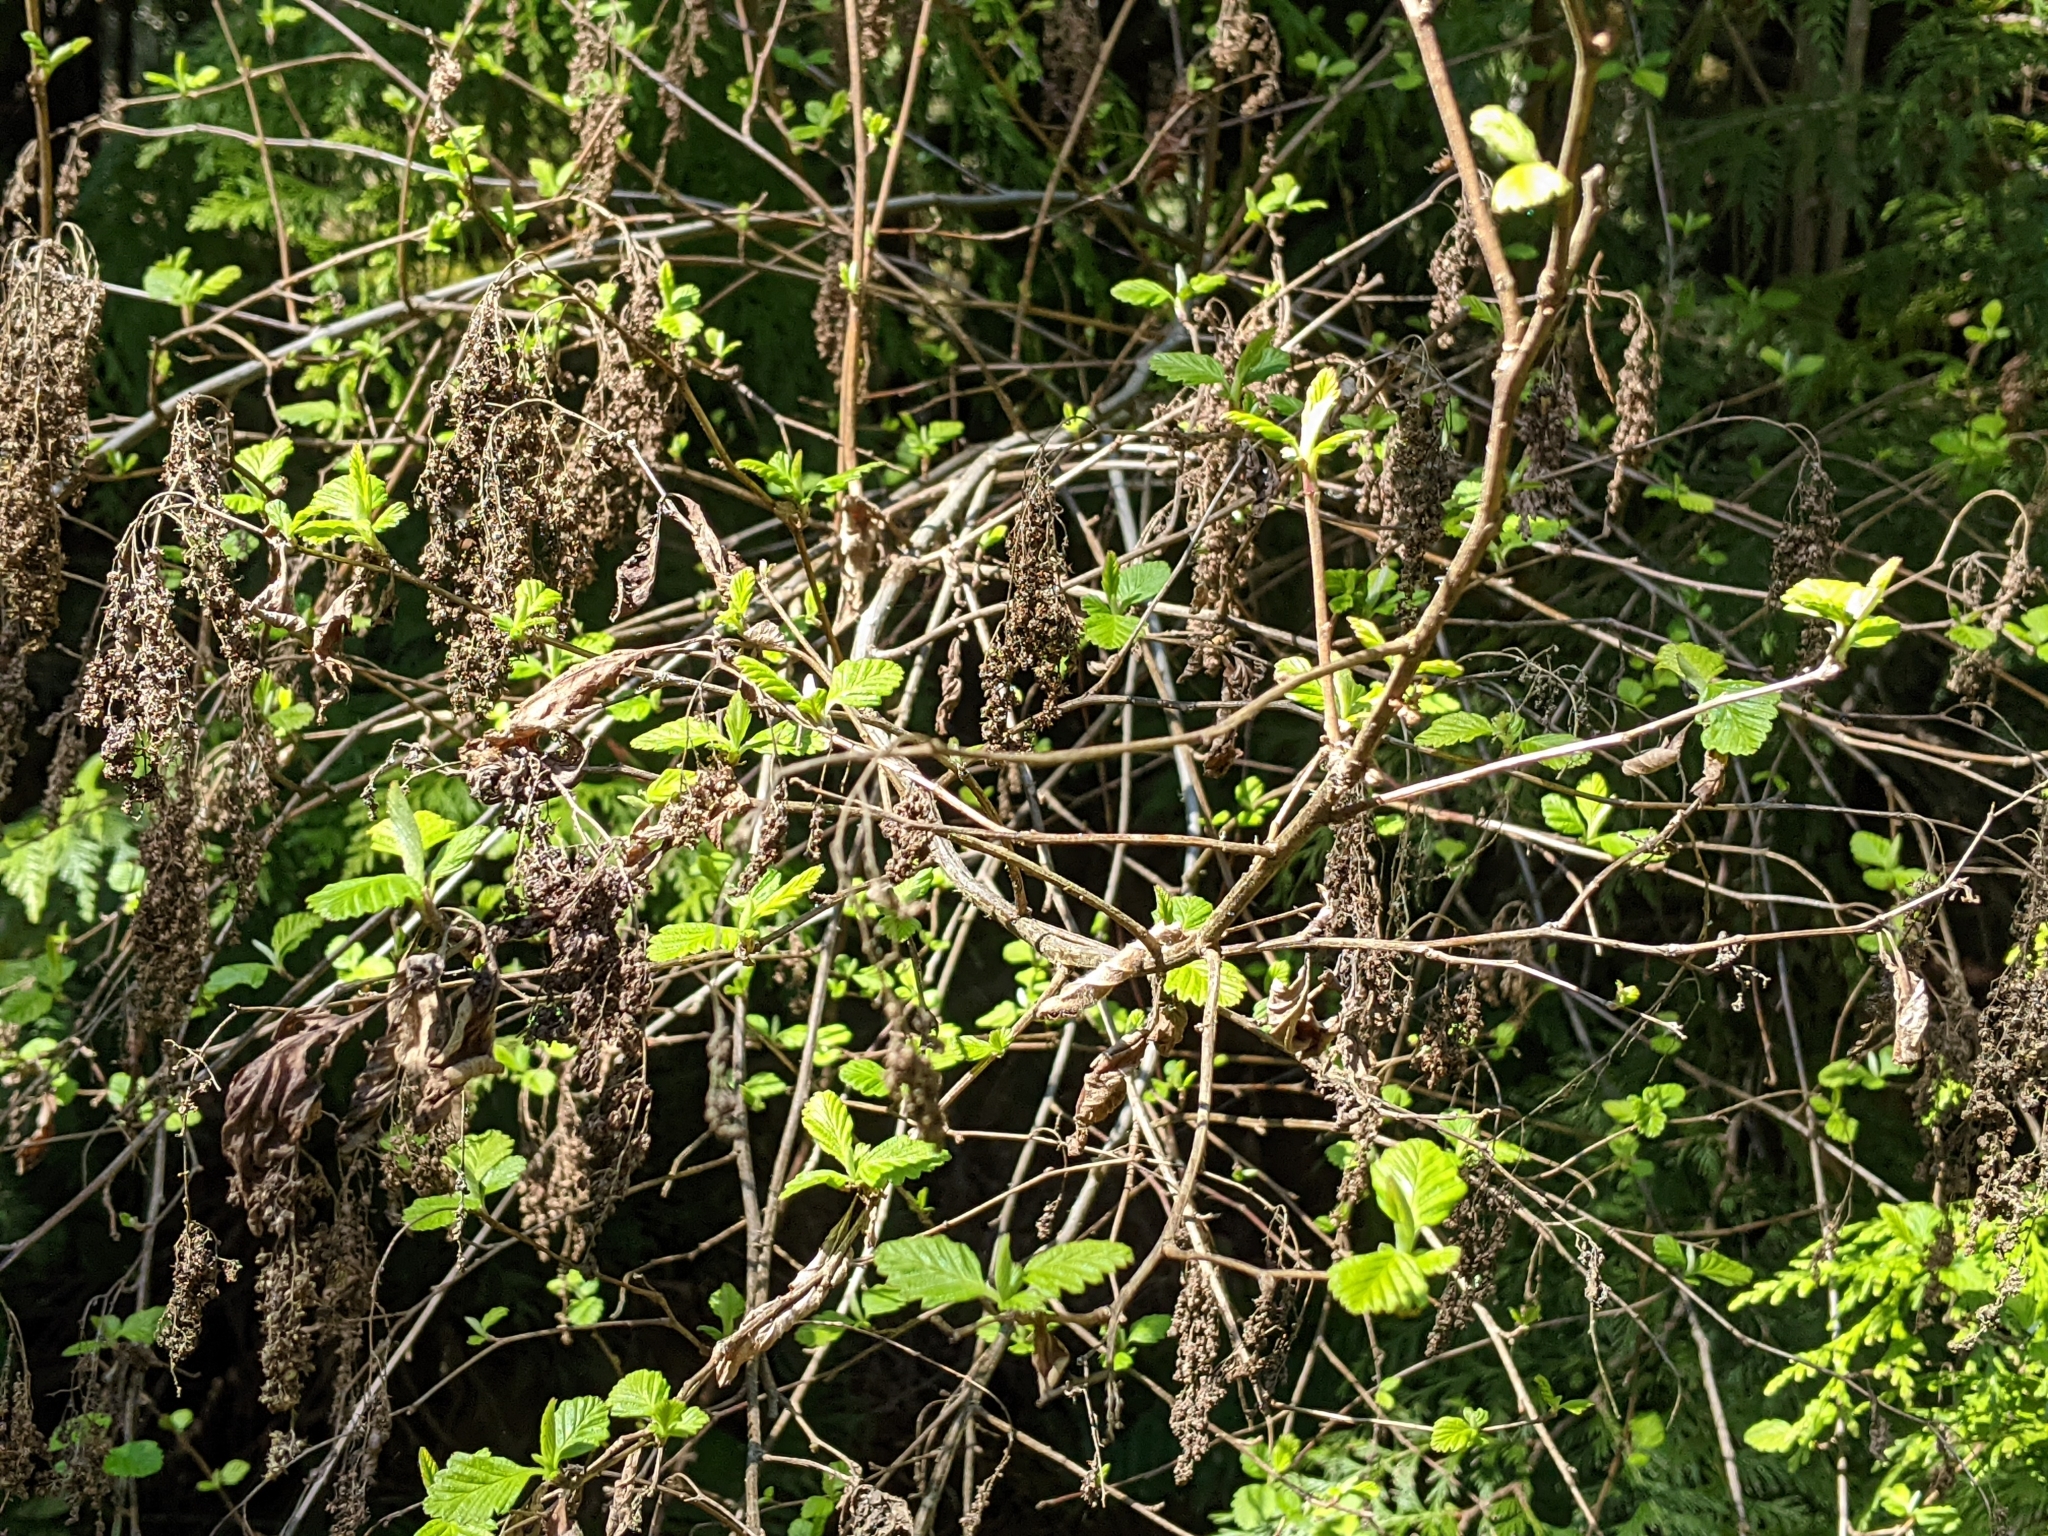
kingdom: Plantae
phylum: Tracheophyta
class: Magnoliopsida
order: Rosales
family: Rosaceae
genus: Holodiscus
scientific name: Holodiscus discolor
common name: Oceanspray
